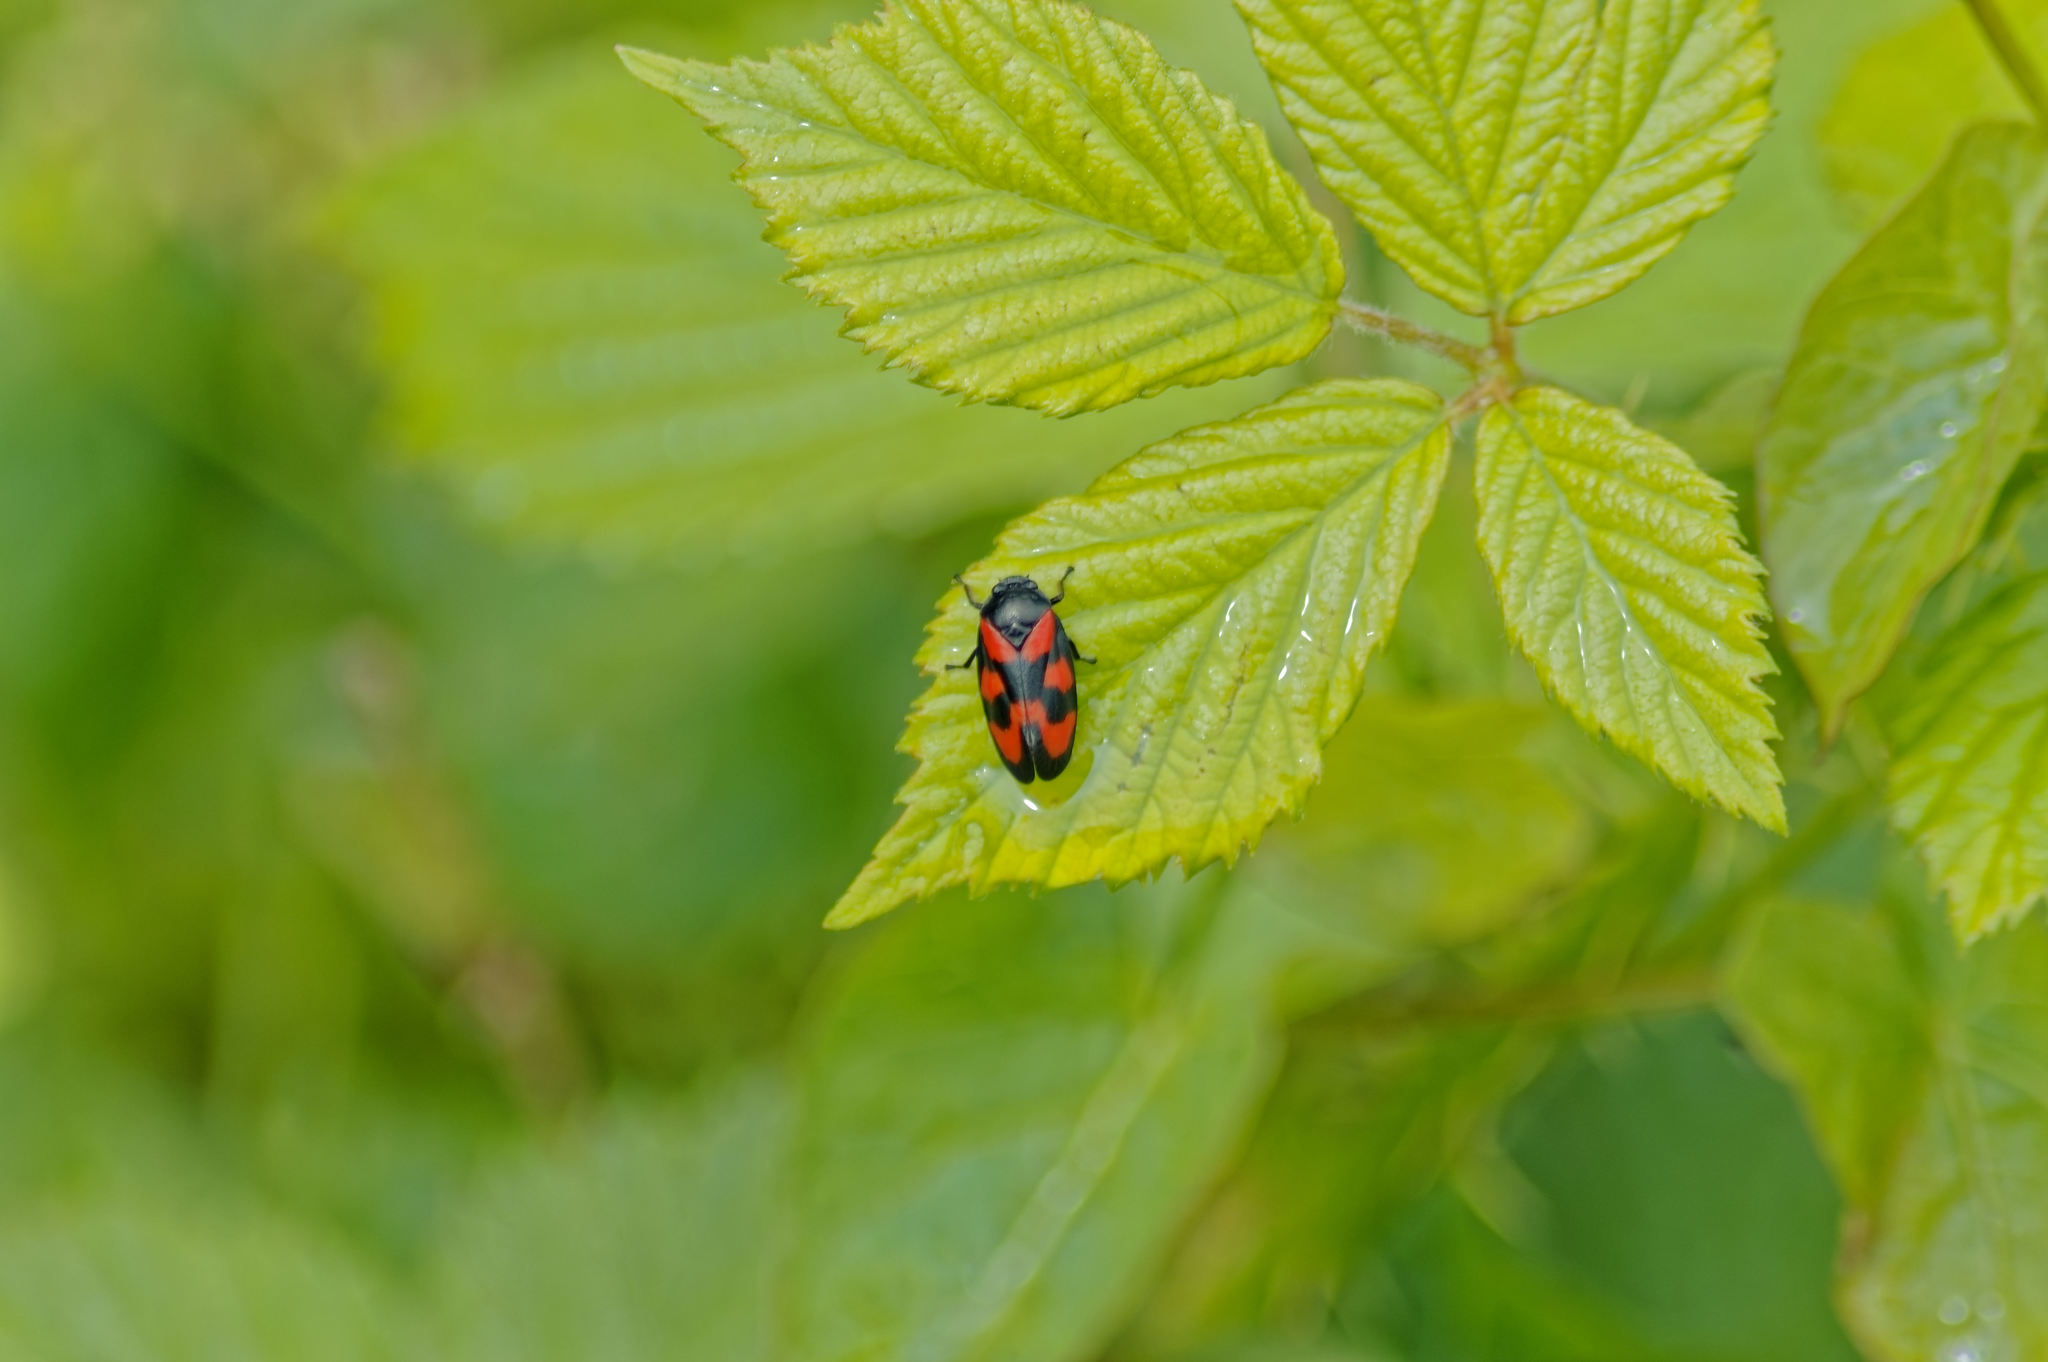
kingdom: Animalia
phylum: Arthropoda
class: Insecta
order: Hemiptera
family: Cercopidae
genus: Cercopis
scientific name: Cercopis vulnerata
